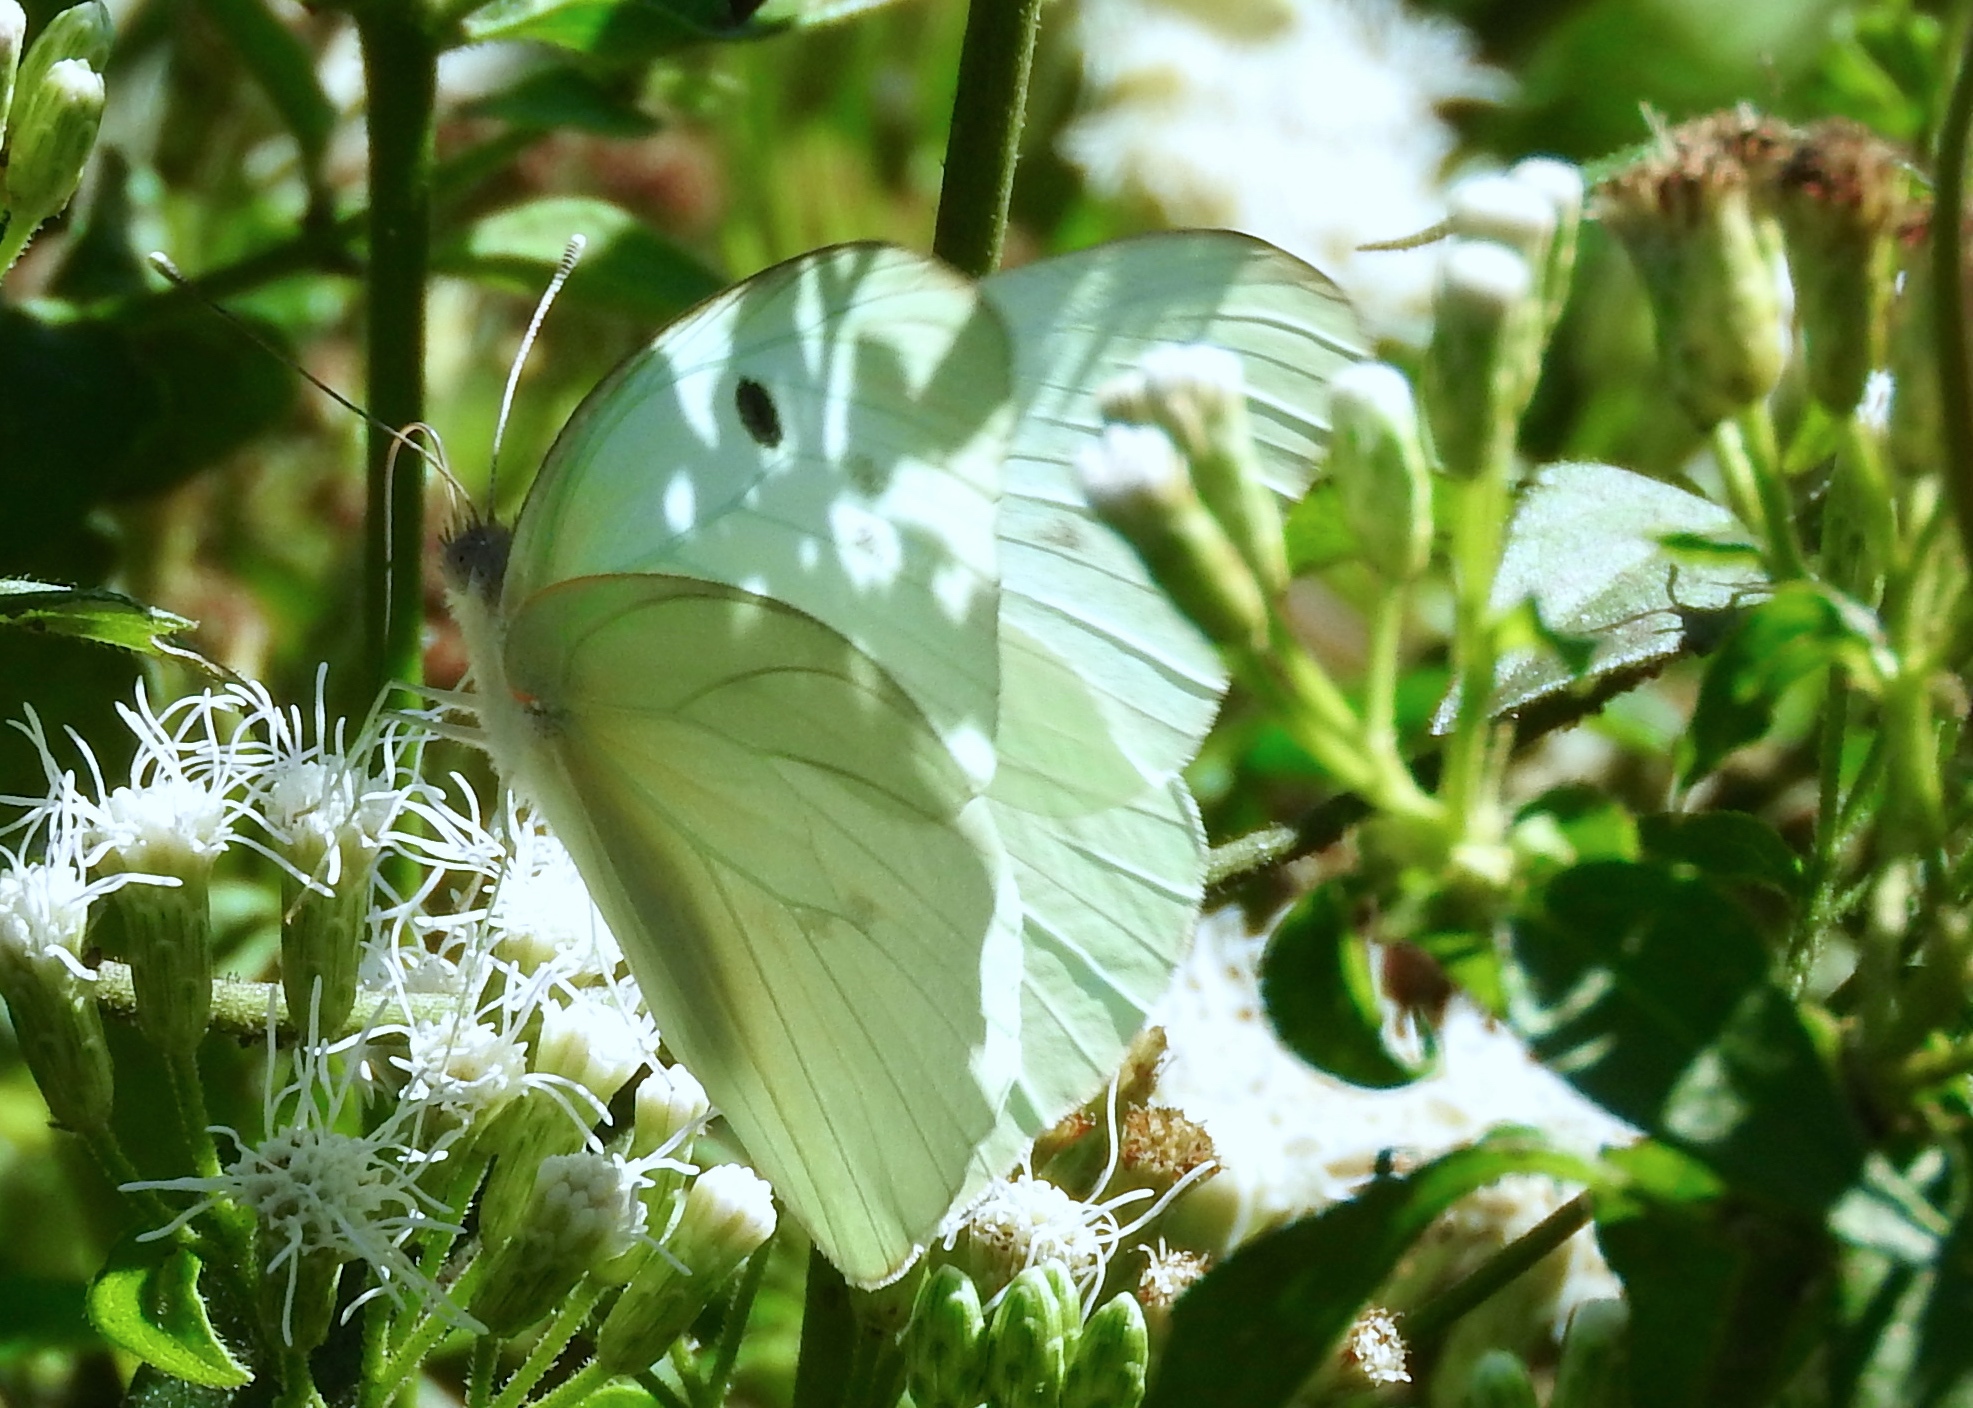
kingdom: Animalia
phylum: Arthropoda
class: Insecta
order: Lepidoptera
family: Pieridae
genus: Ganyra
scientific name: Ganyra josephina
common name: Giant white
